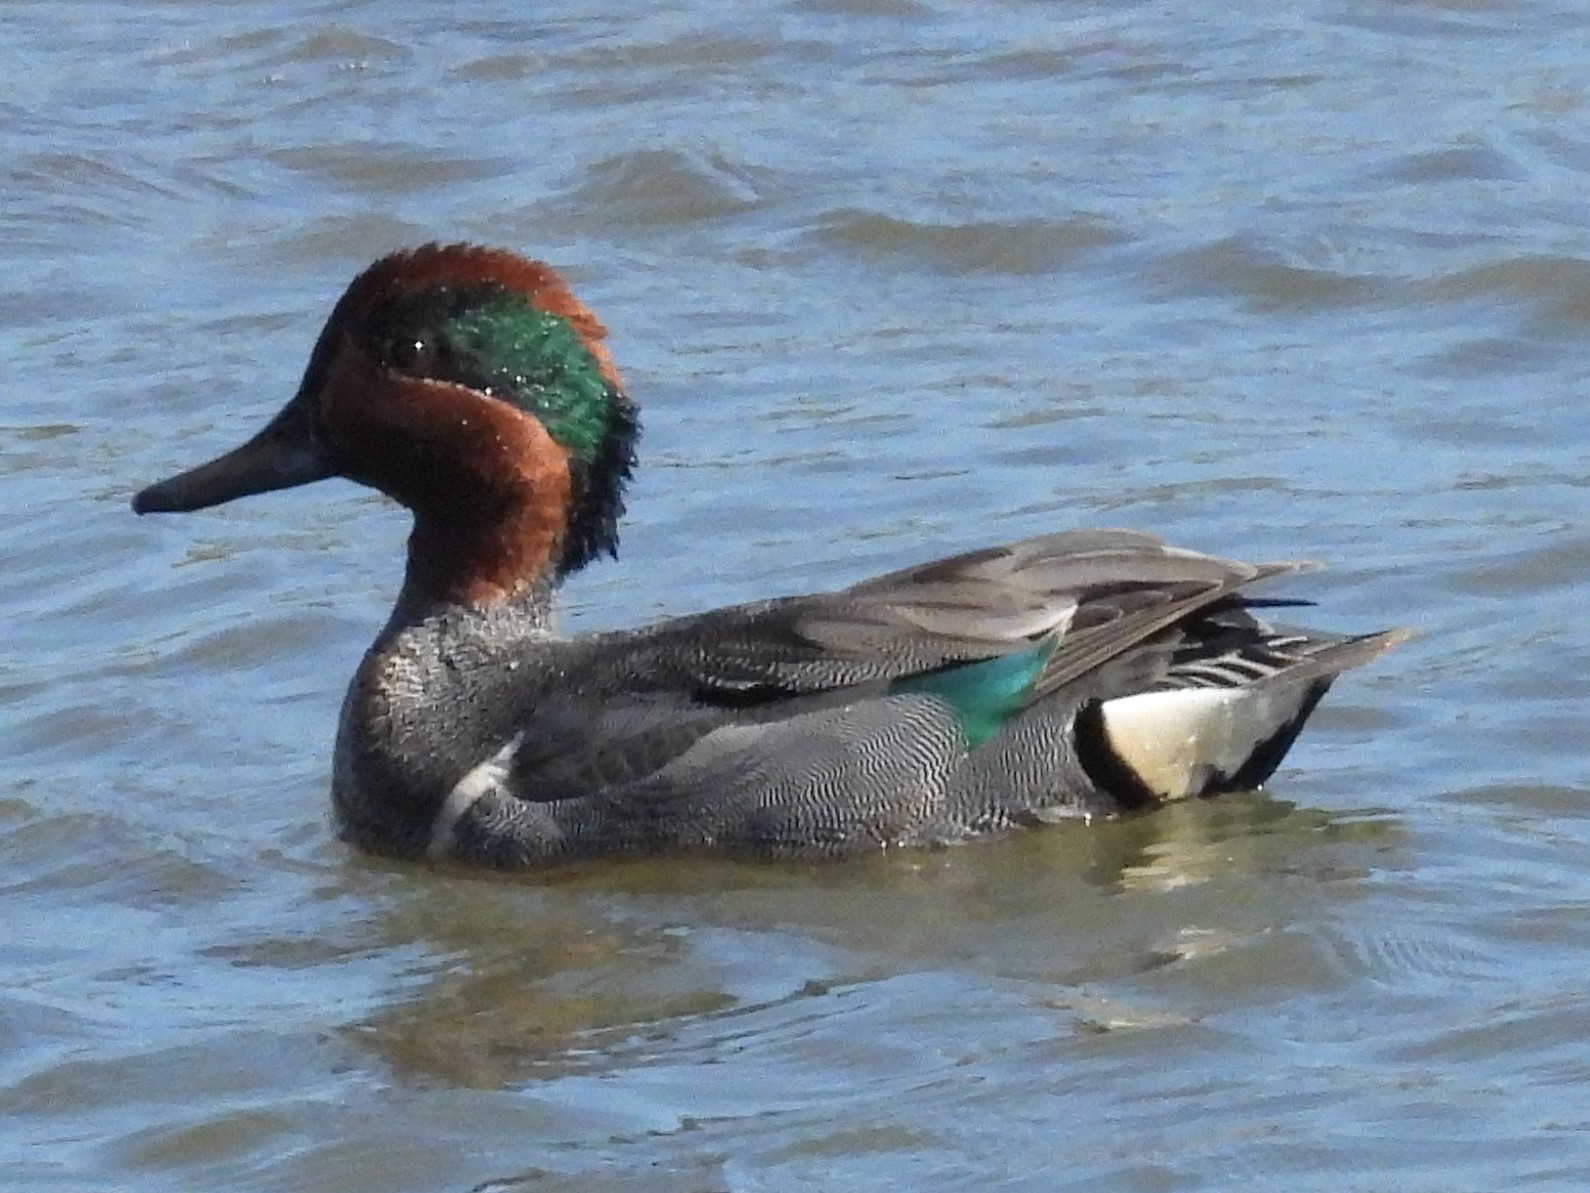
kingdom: Animalia
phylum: Chordata
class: Aves
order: Anseriformes
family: Anatidae
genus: Anas
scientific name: Anas crecca
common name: Eurasian teal
